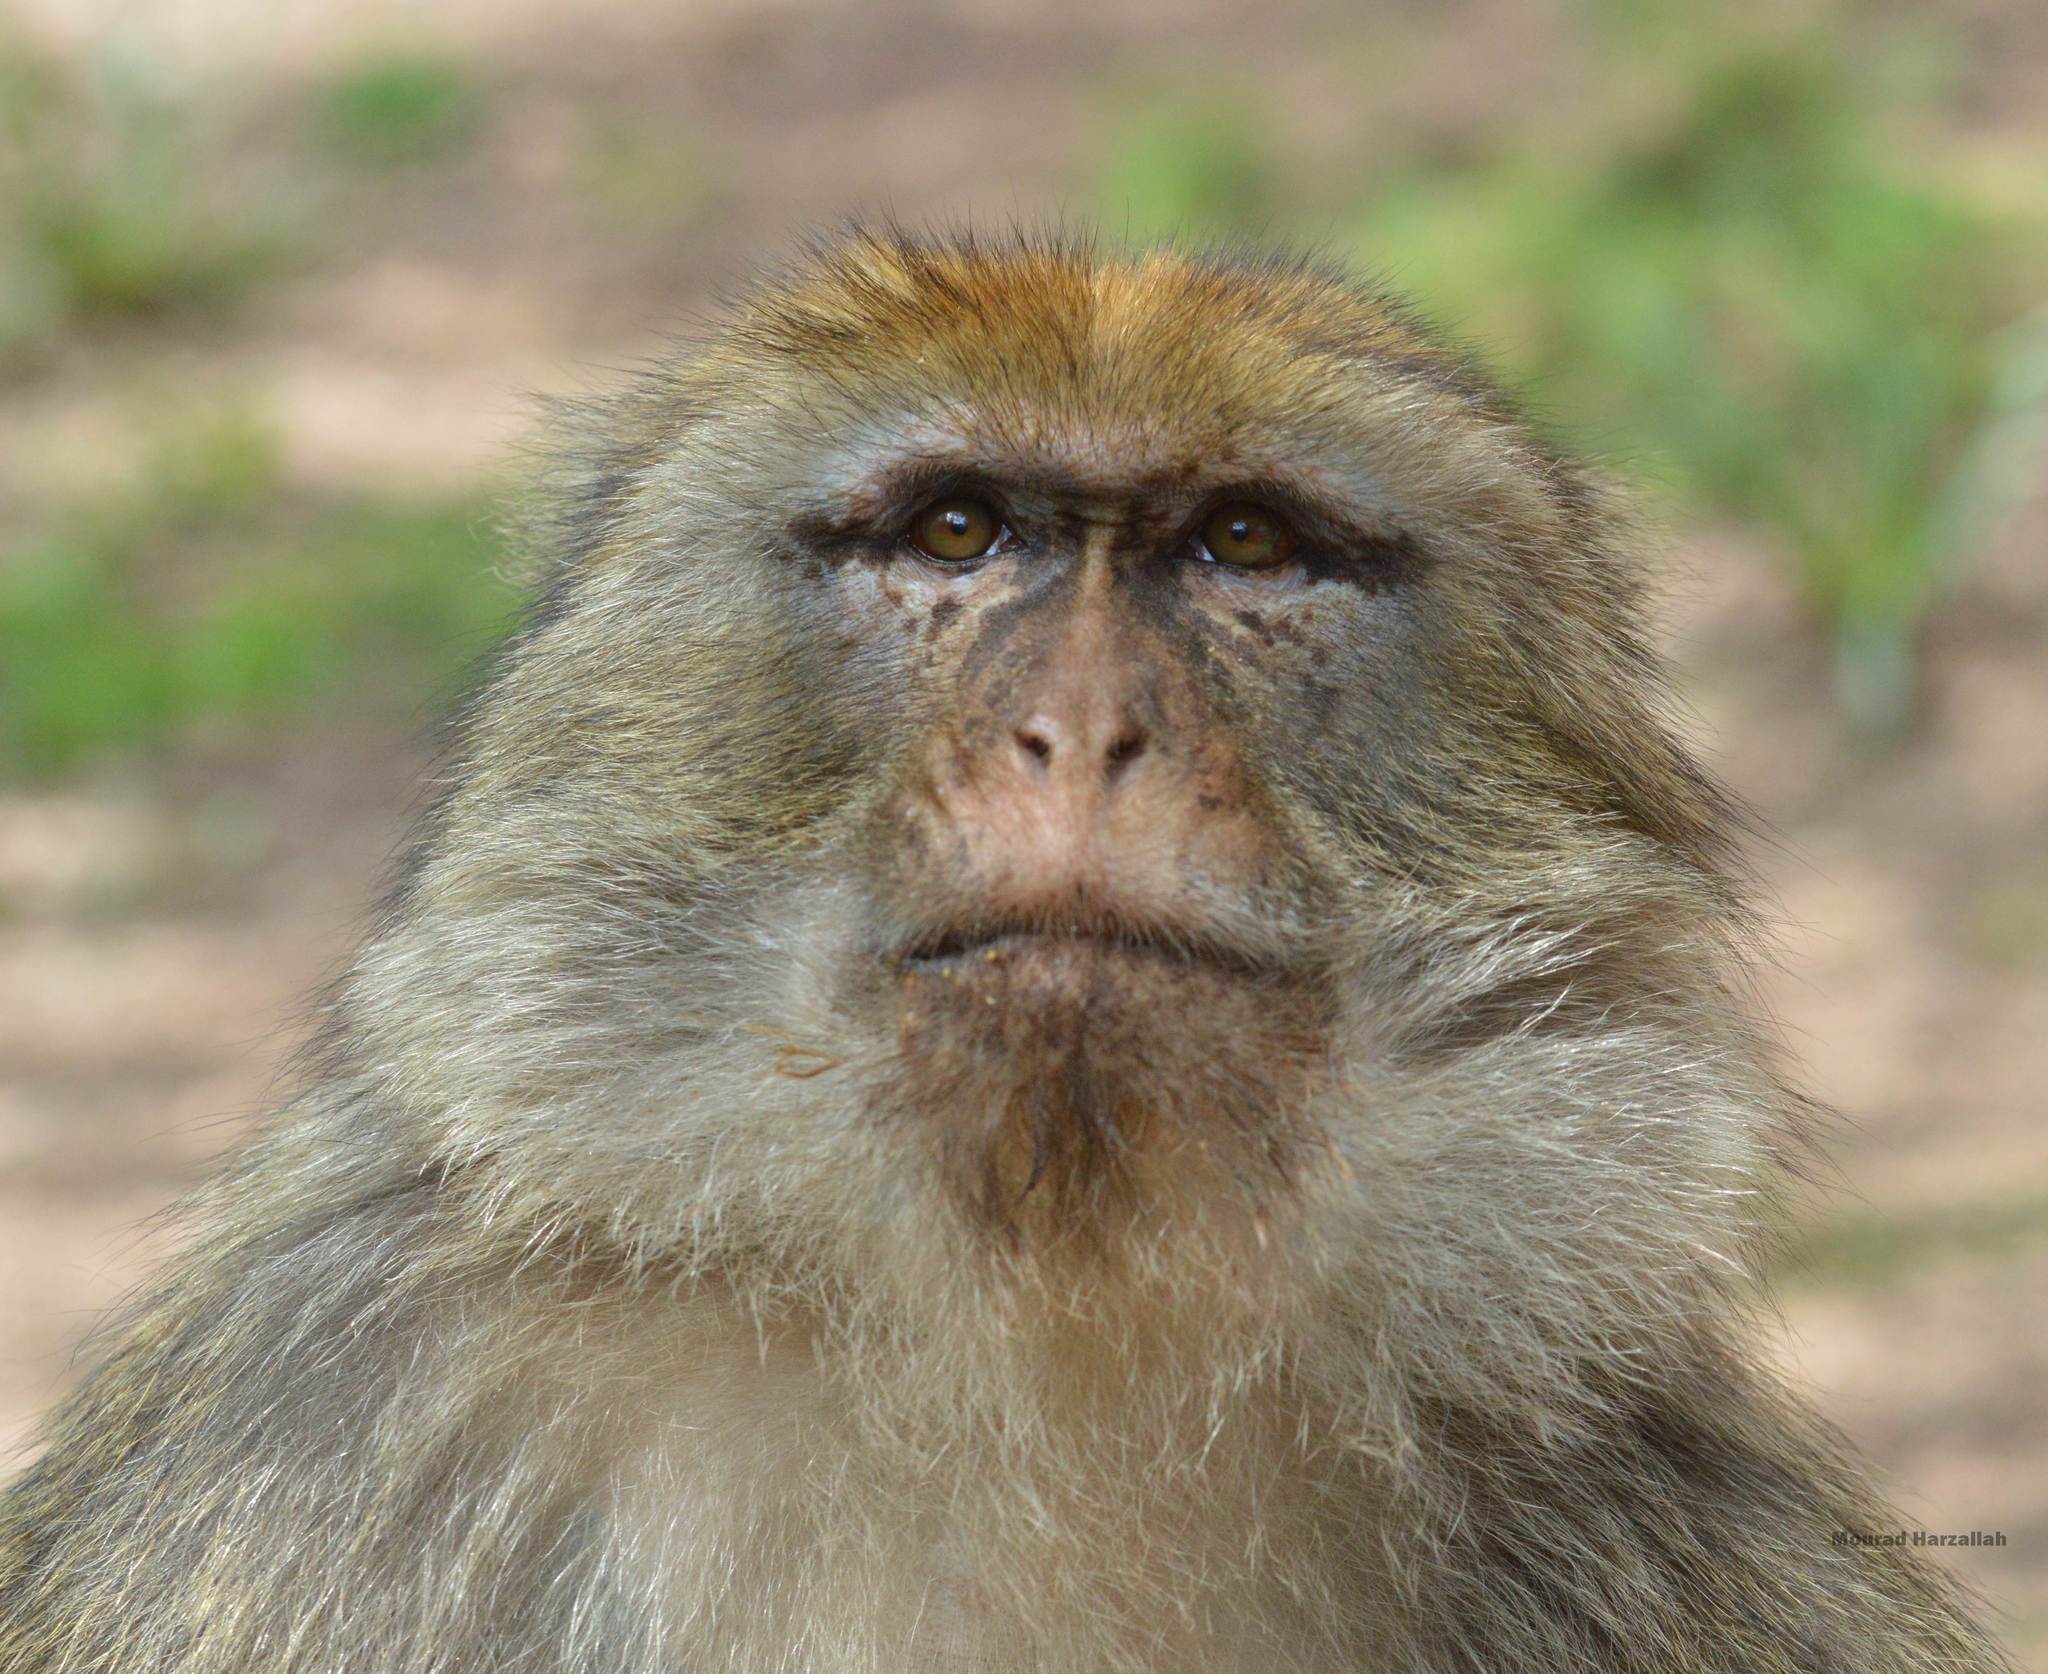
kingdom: Animalia
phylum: Chordata
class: Mammalia
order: Primates
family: Cercopithecidae
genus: Macaca
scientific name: Macaca sylvanus
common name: Barbary macaque
